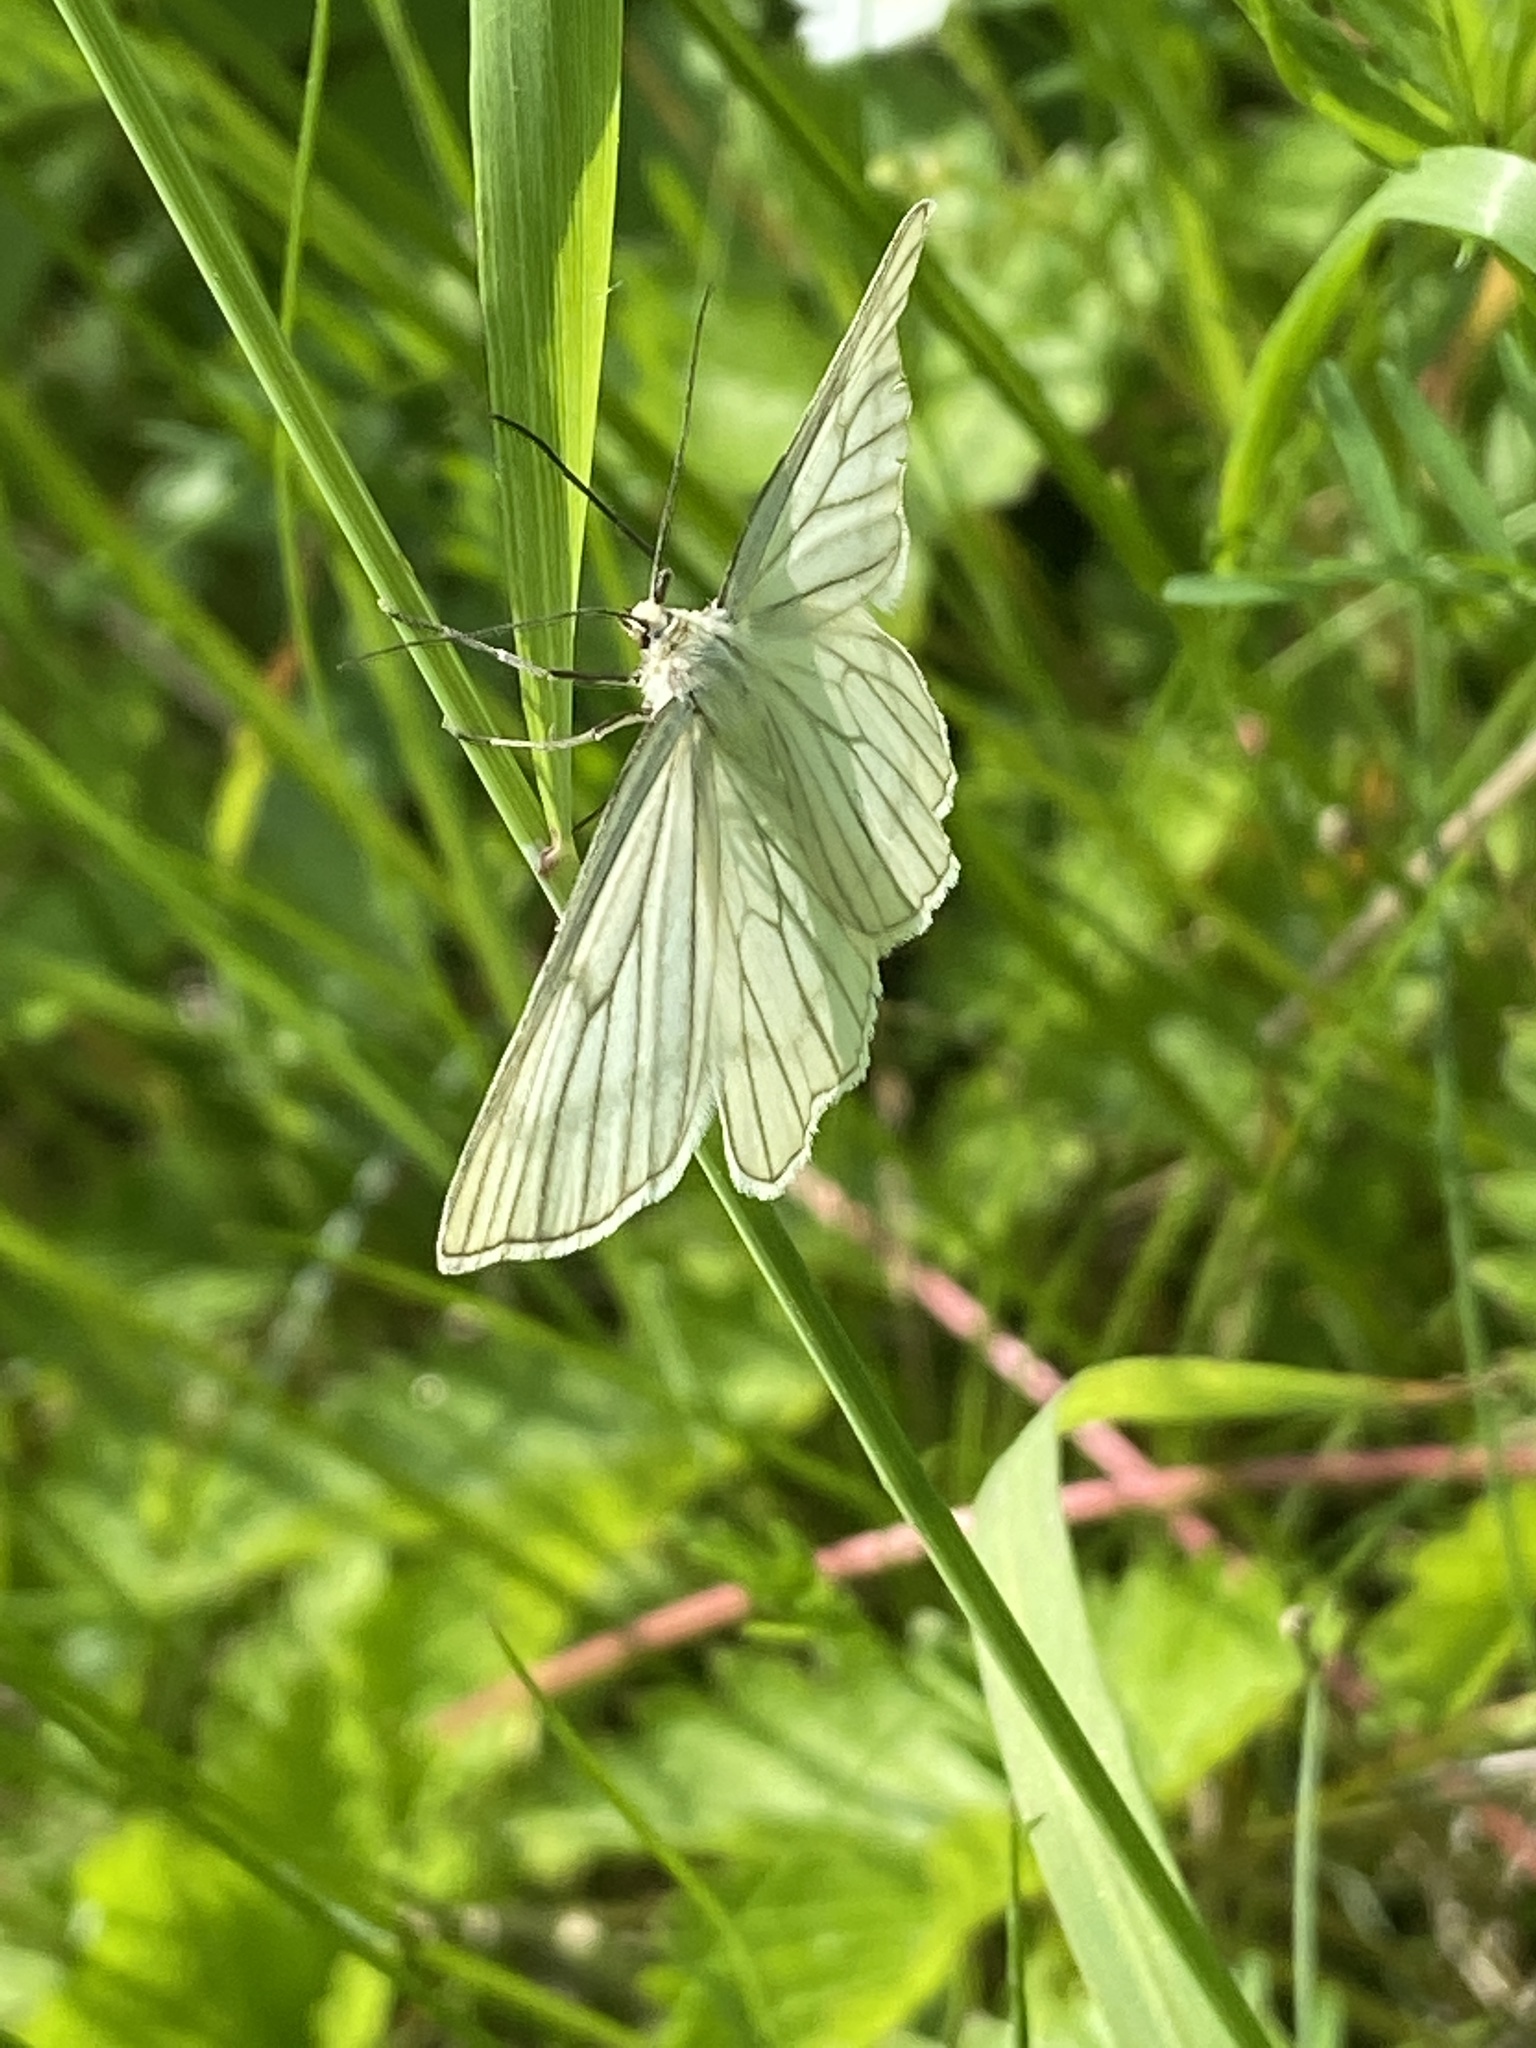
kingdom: Animalia
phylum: Arthropoda
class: Insecta
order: Lepidoptera
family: Geometridae
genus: Siona
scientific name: Siona lineata
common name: Black-veined moth
